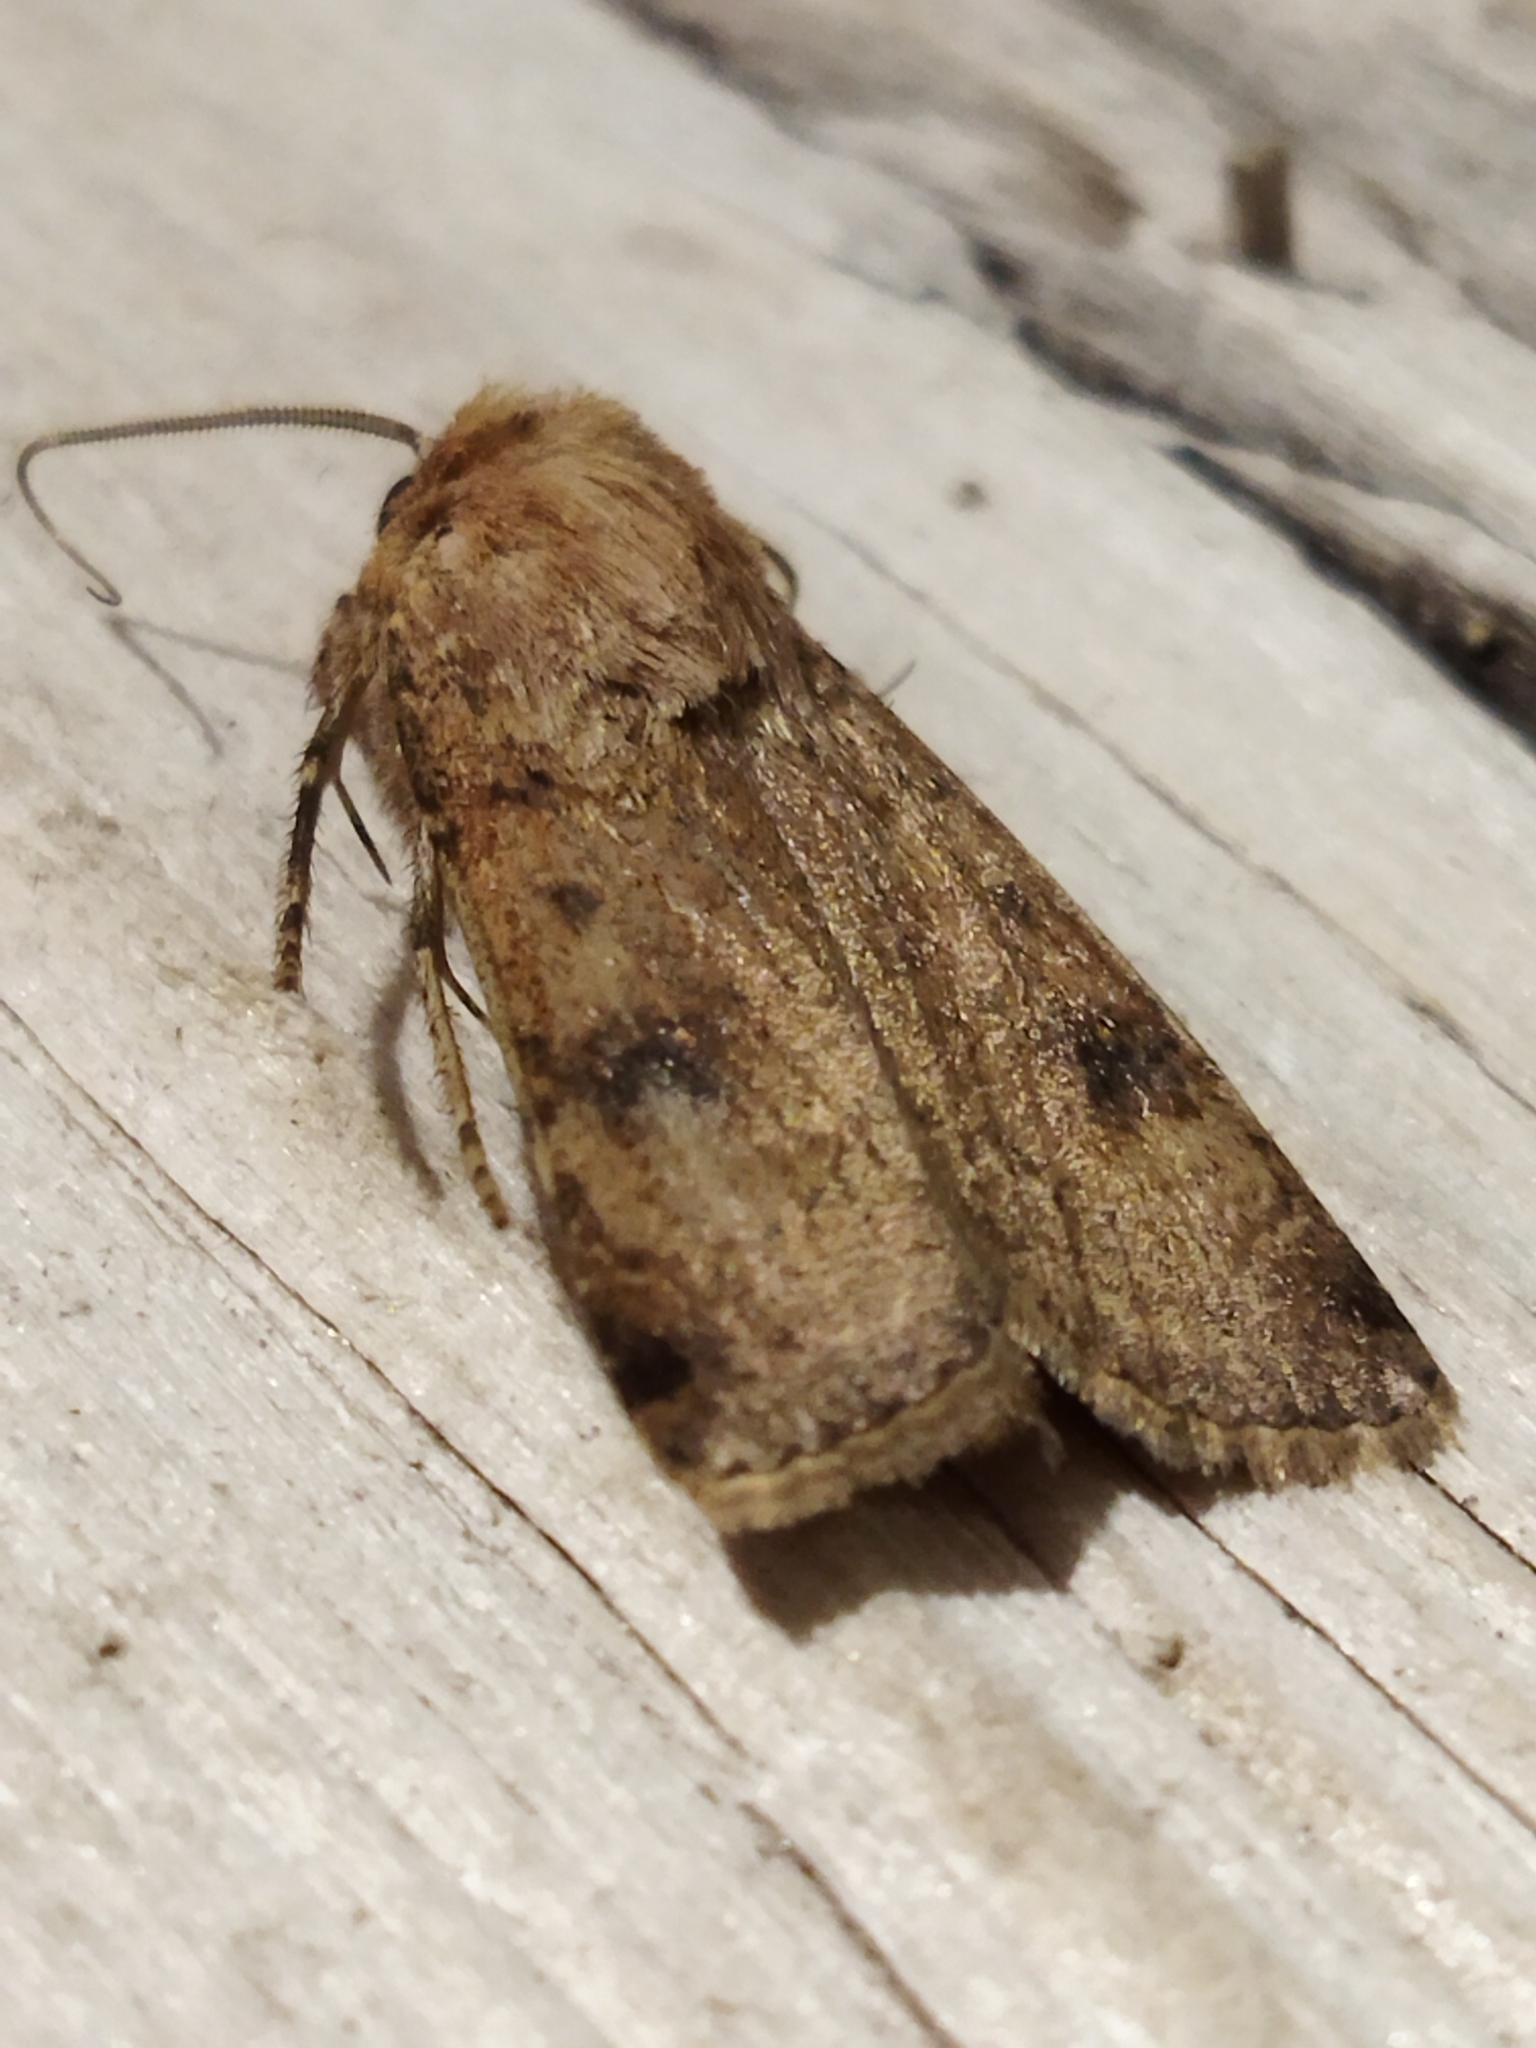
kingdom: Animalia
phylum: Arthropoda
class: Insecta
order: Lepidoptera
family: Noctuidae
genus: Agrotis
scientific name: Agrotis trux
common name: Crescent dart
